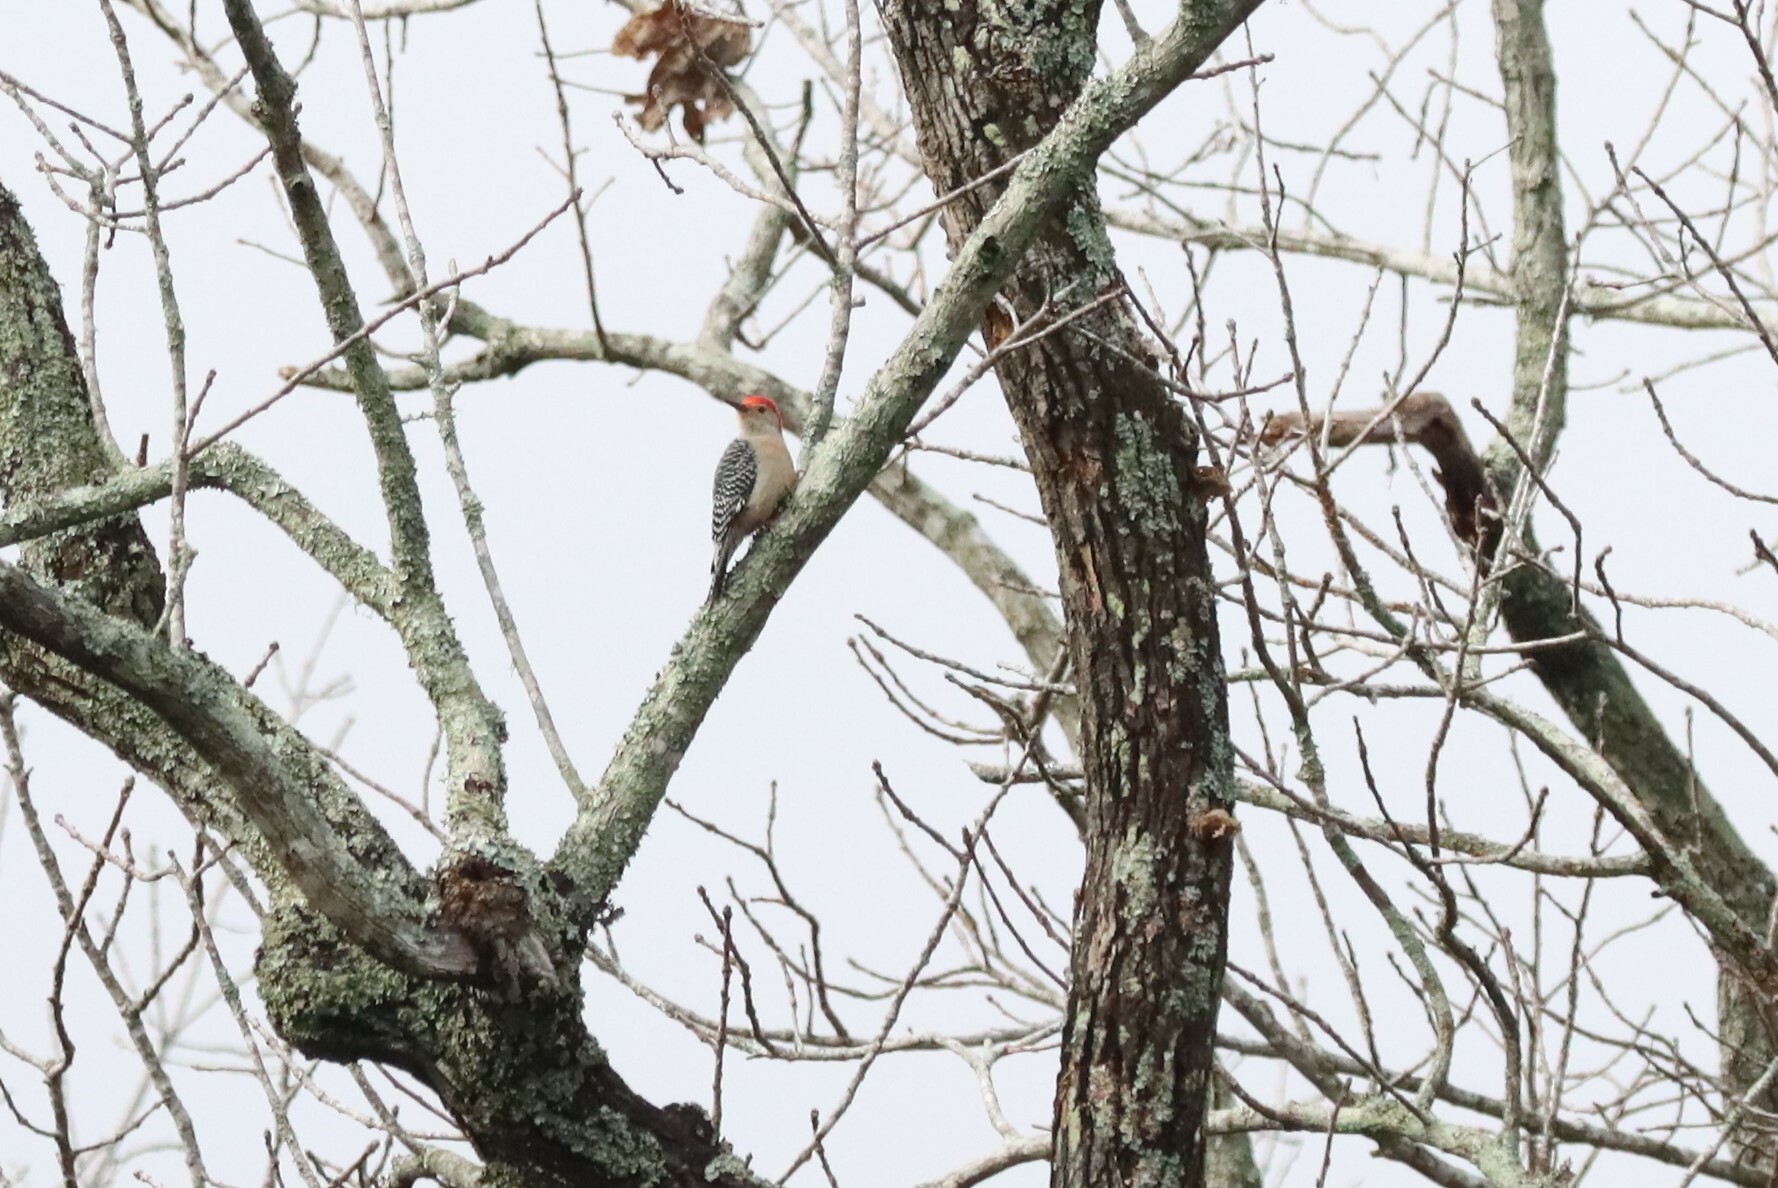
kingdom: Animalia
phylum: Chordata
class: Aves
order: Piciformes
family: Picidae
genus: Melanerpes
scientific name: Melanerpes carolinus
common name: Red-bellied woodpecker
